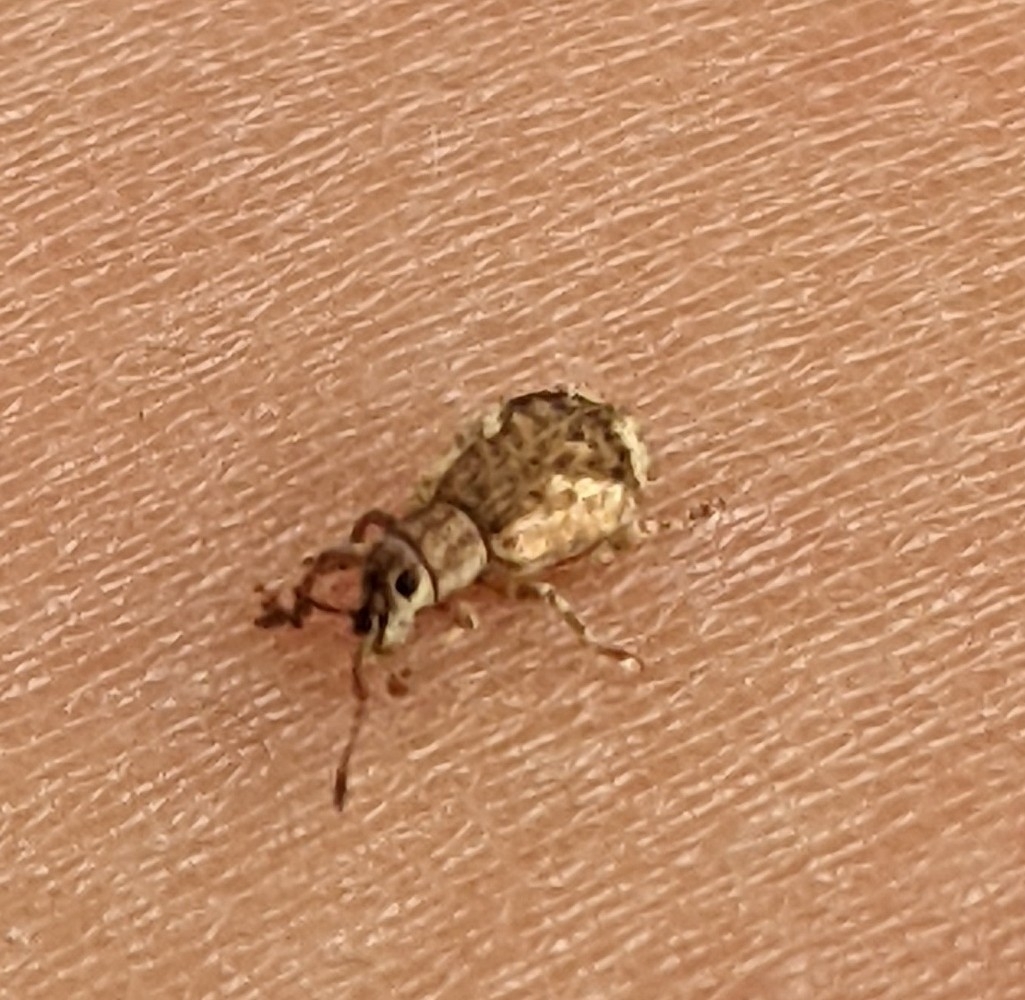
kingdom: Animalia
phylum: Arthropoda
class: Insecta
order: Coleoptera
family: Curculionidae
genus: Pseudoedophrys
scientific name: Pseudoedophrys hilleri
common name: Weevil
